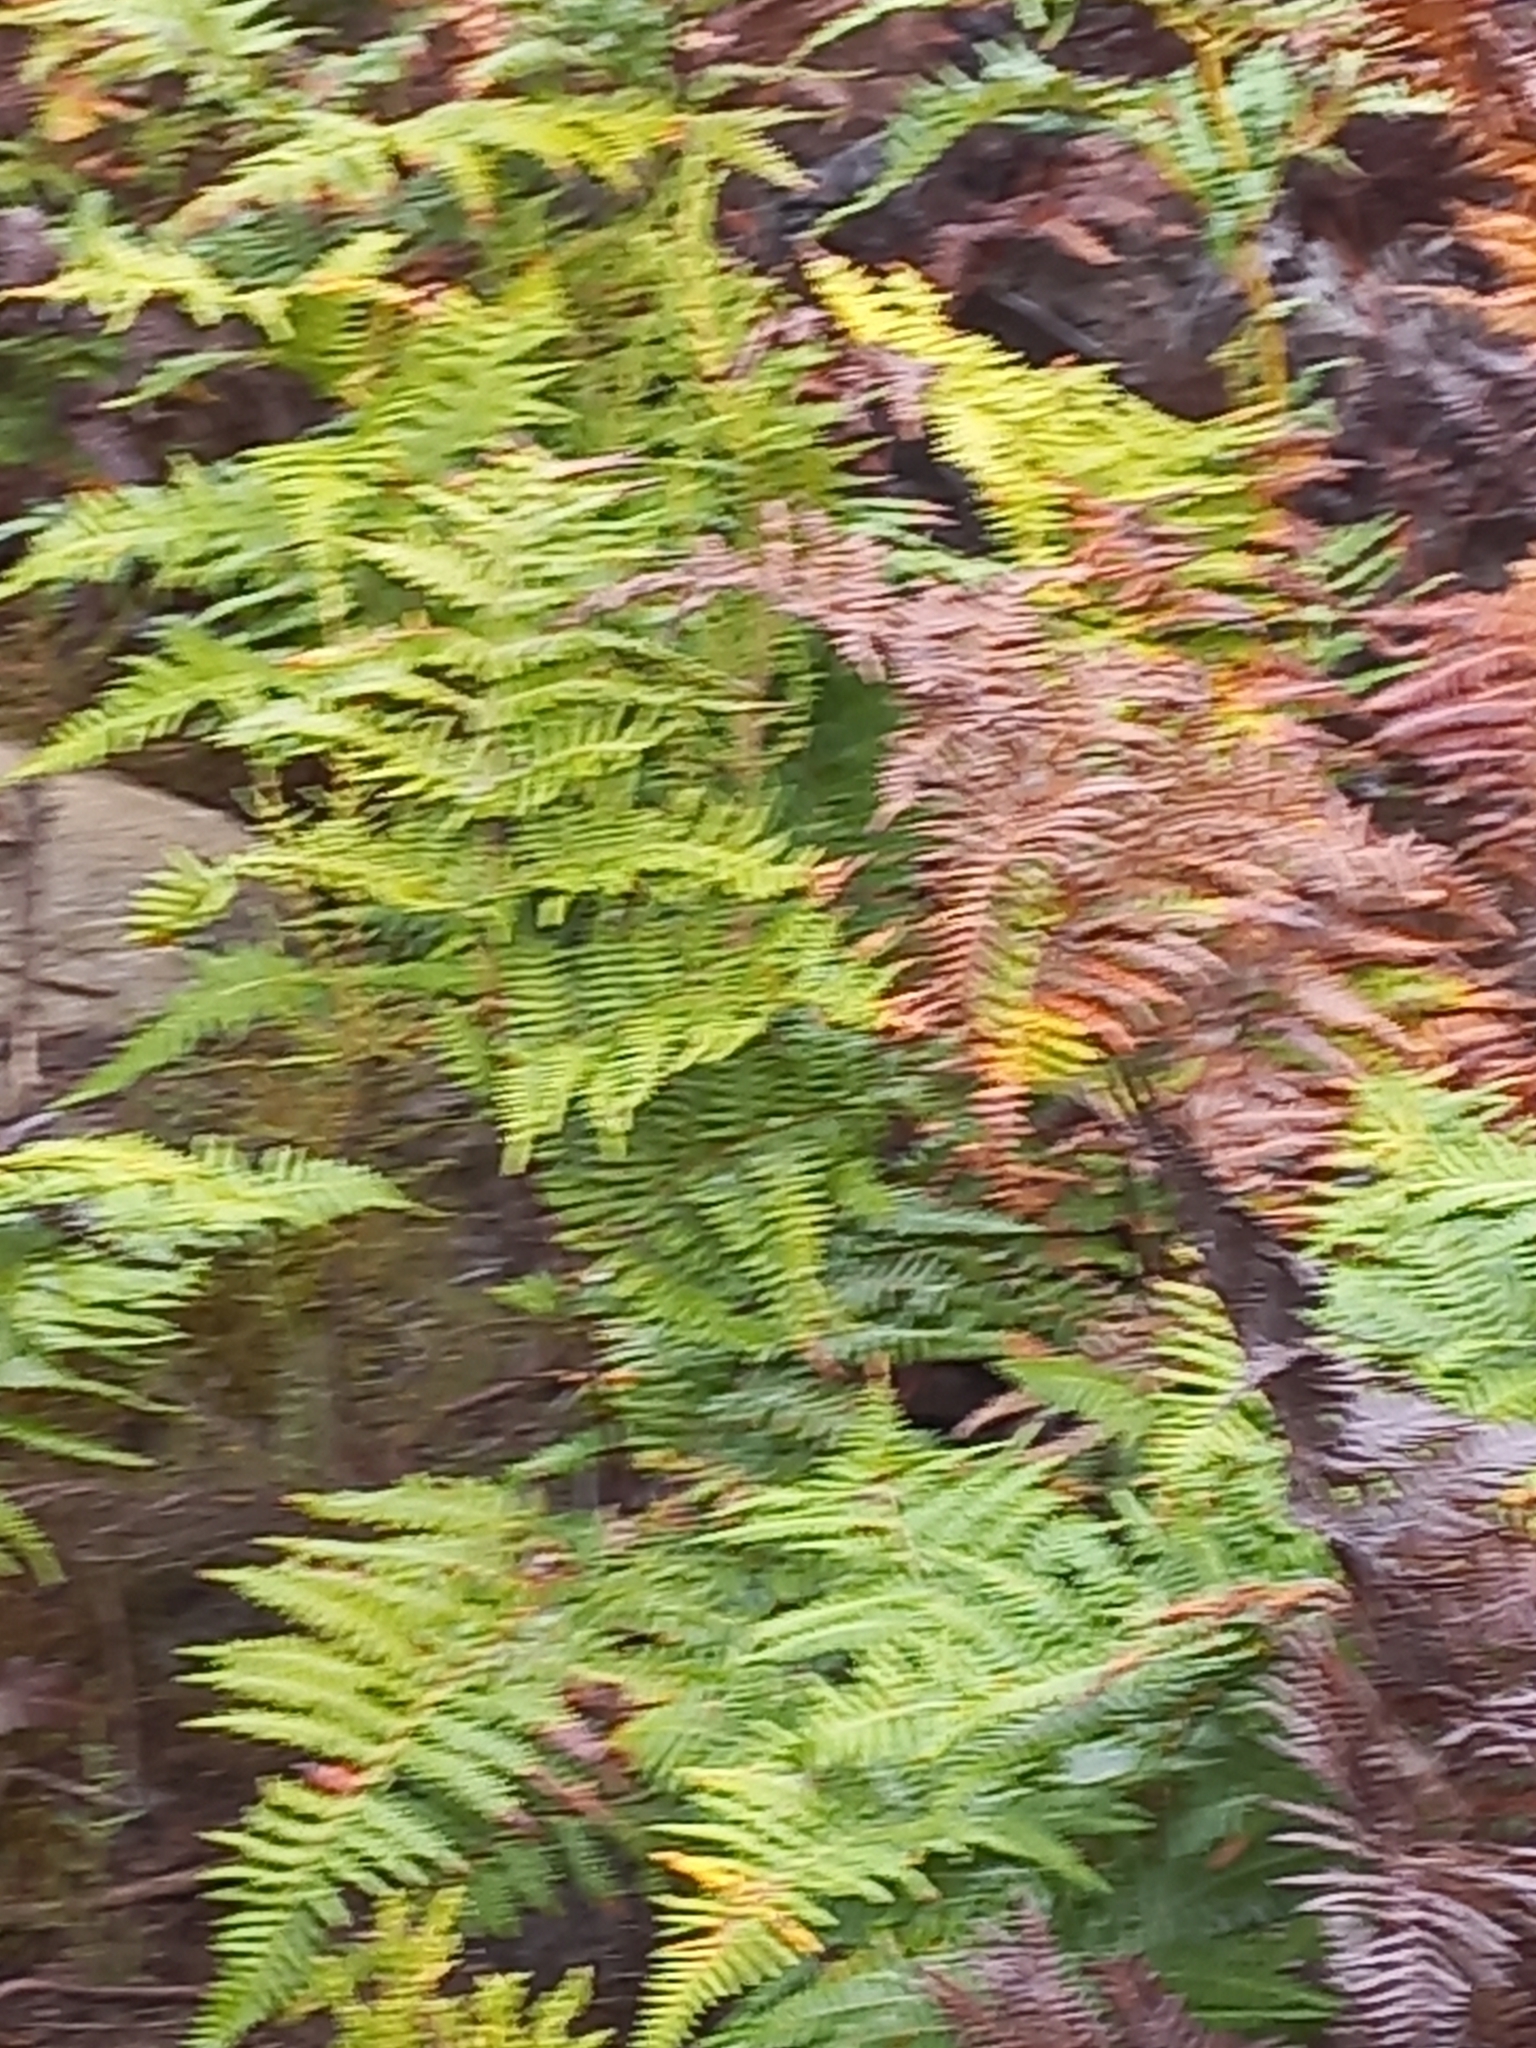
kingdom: Plantae
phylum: Tracheophyta
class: Polypodiopsida
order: Polypodiales
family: Dennstaedtiaceae
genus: Pteridium
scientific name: Pteridium aquilinum
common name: Bracken
